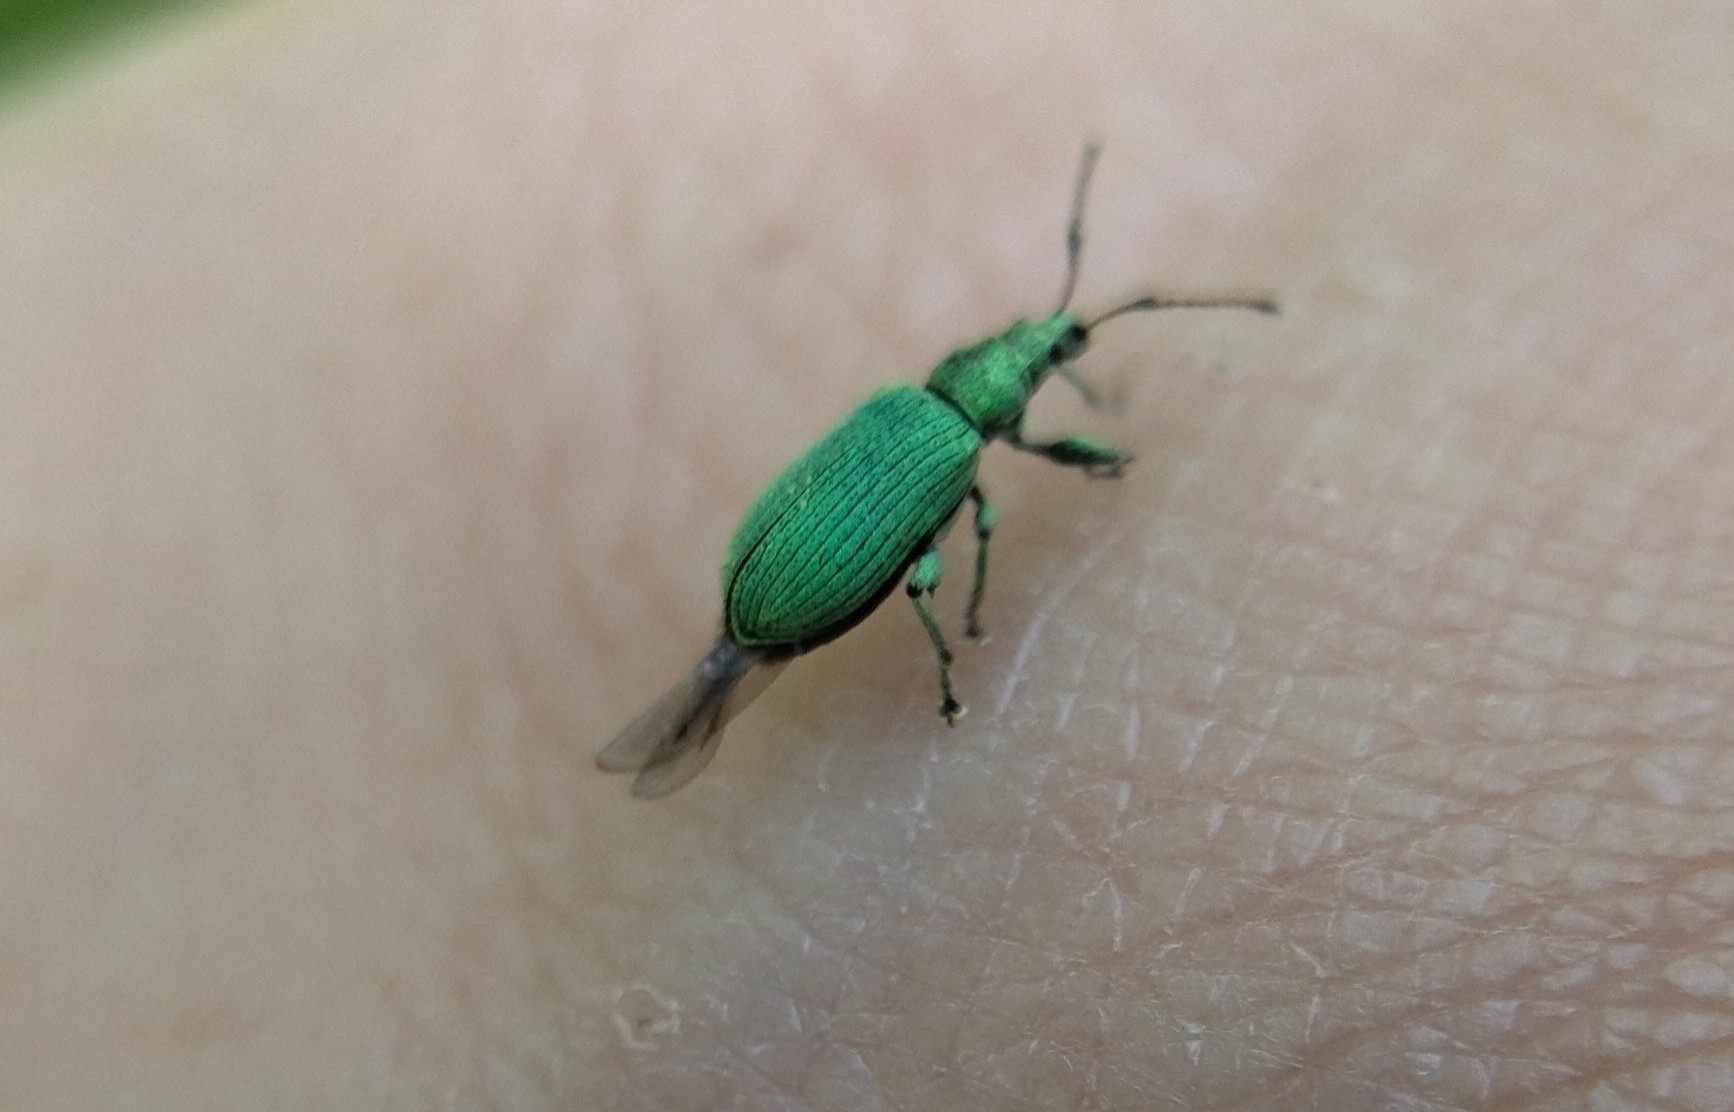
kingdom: Animalia
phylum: Arthropoda
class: Insecta
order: Coleoptera
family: Curculionidae
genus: Phyllobius
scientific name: Phyllobius maculicornis
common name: Green leaf weevil
